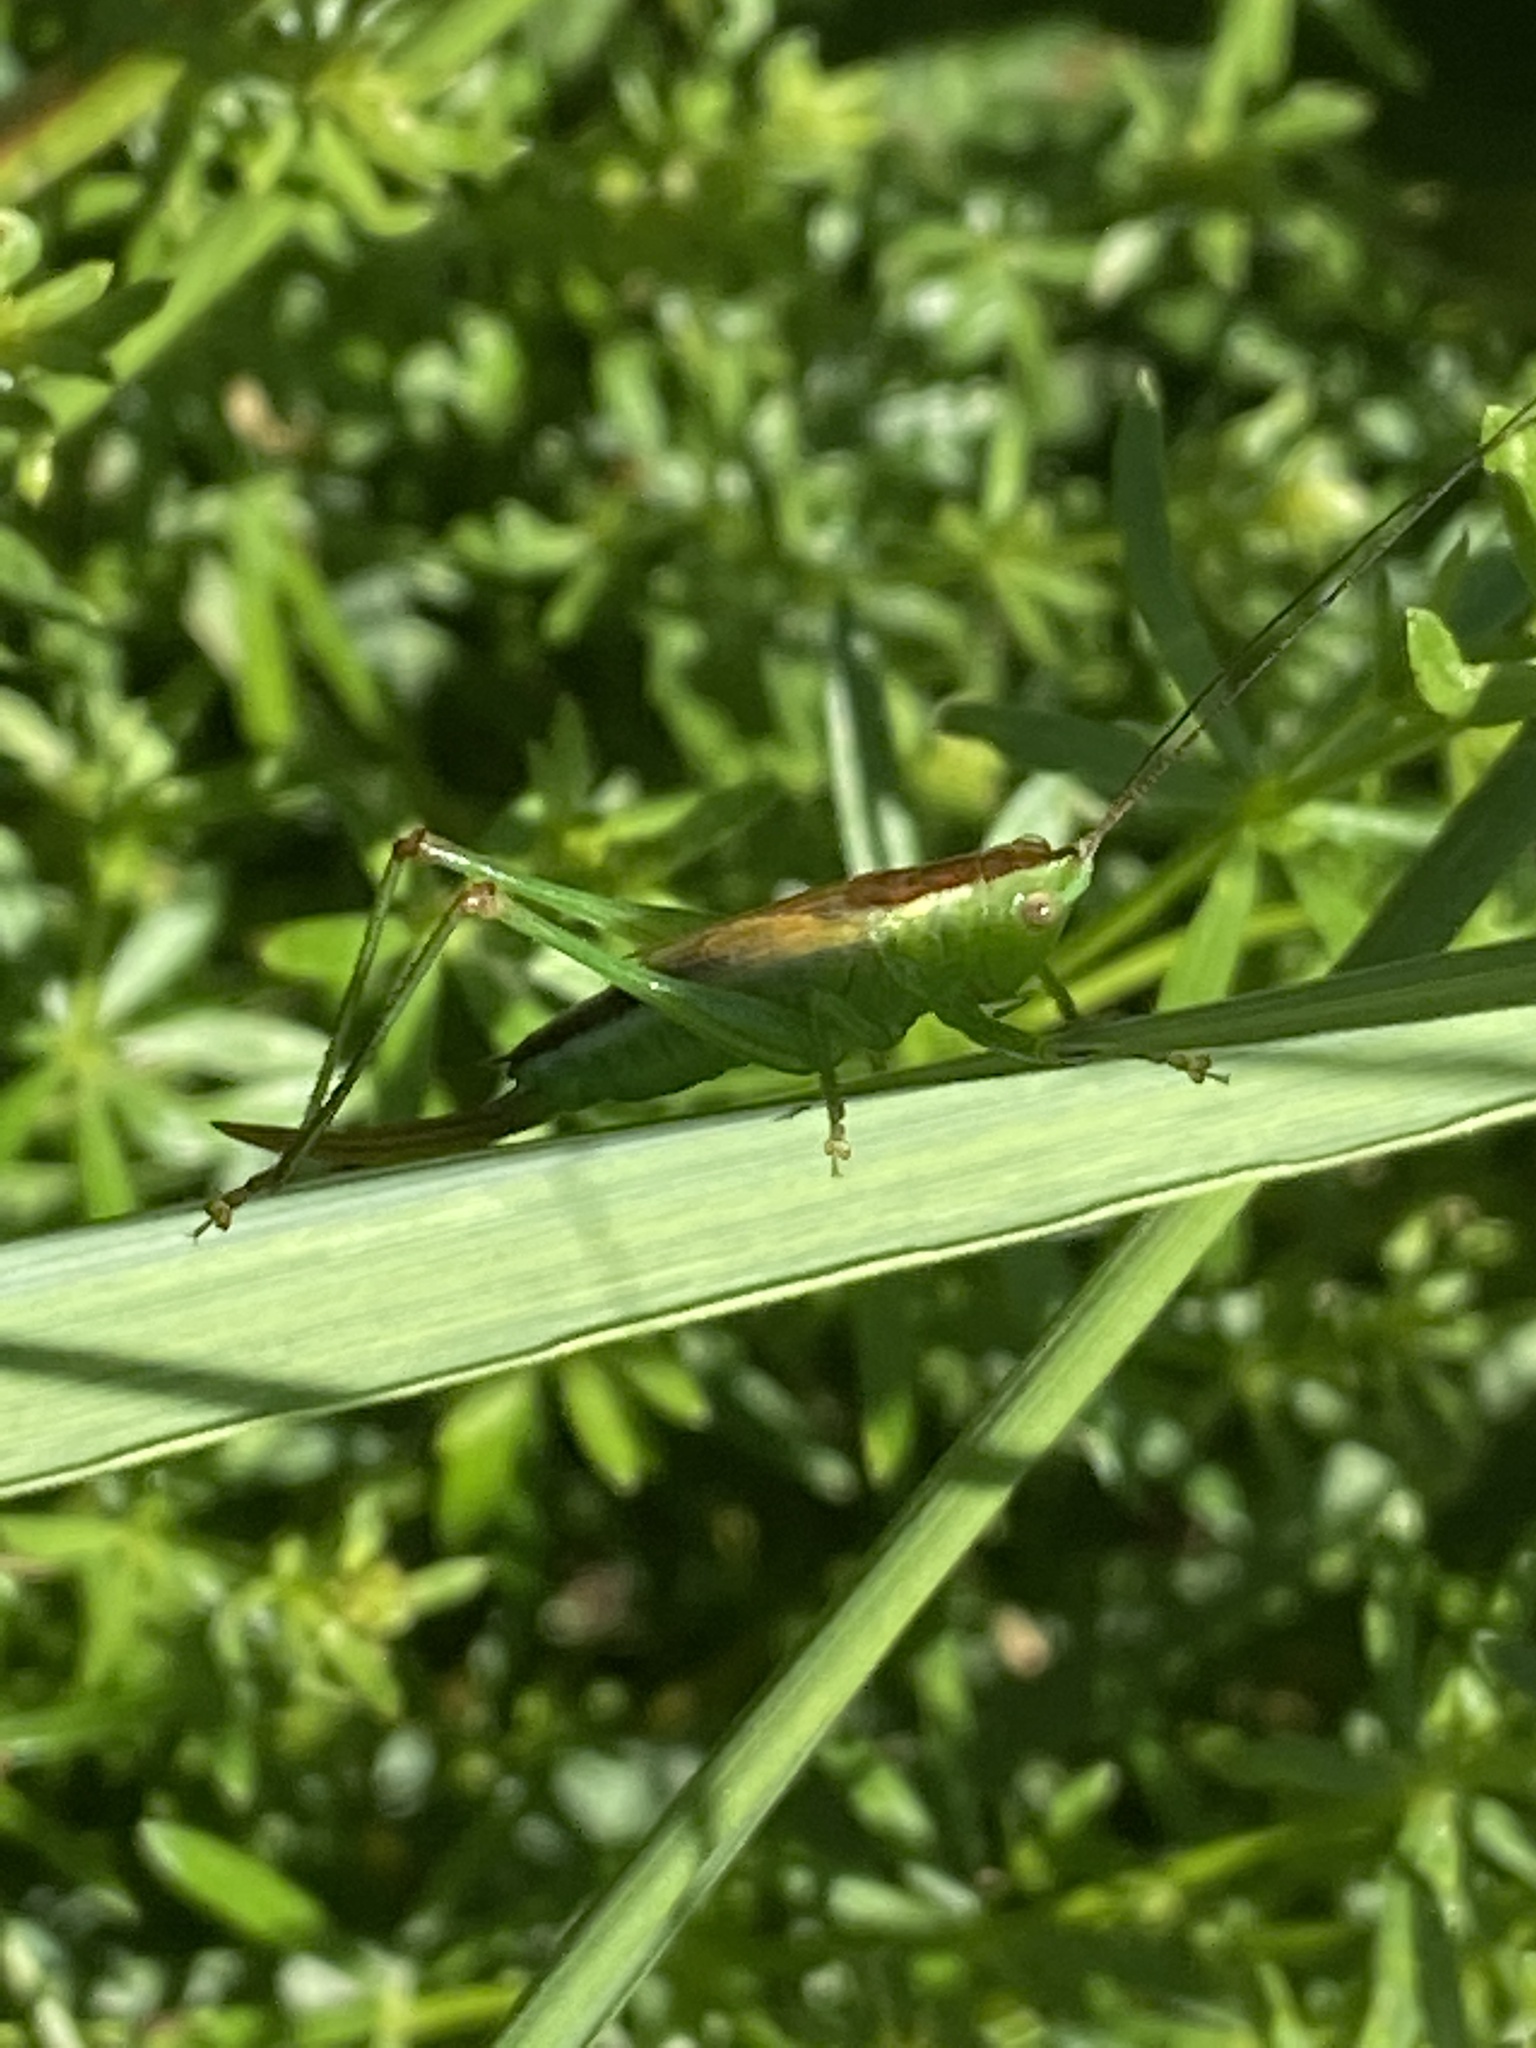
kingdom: Animalia
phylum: Arthropoda
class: Insecta
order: Orthoptera
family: Tettigoniidae
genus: Conocephalus
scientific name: Conocephalus dorsalis
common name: Short-winged conehead
